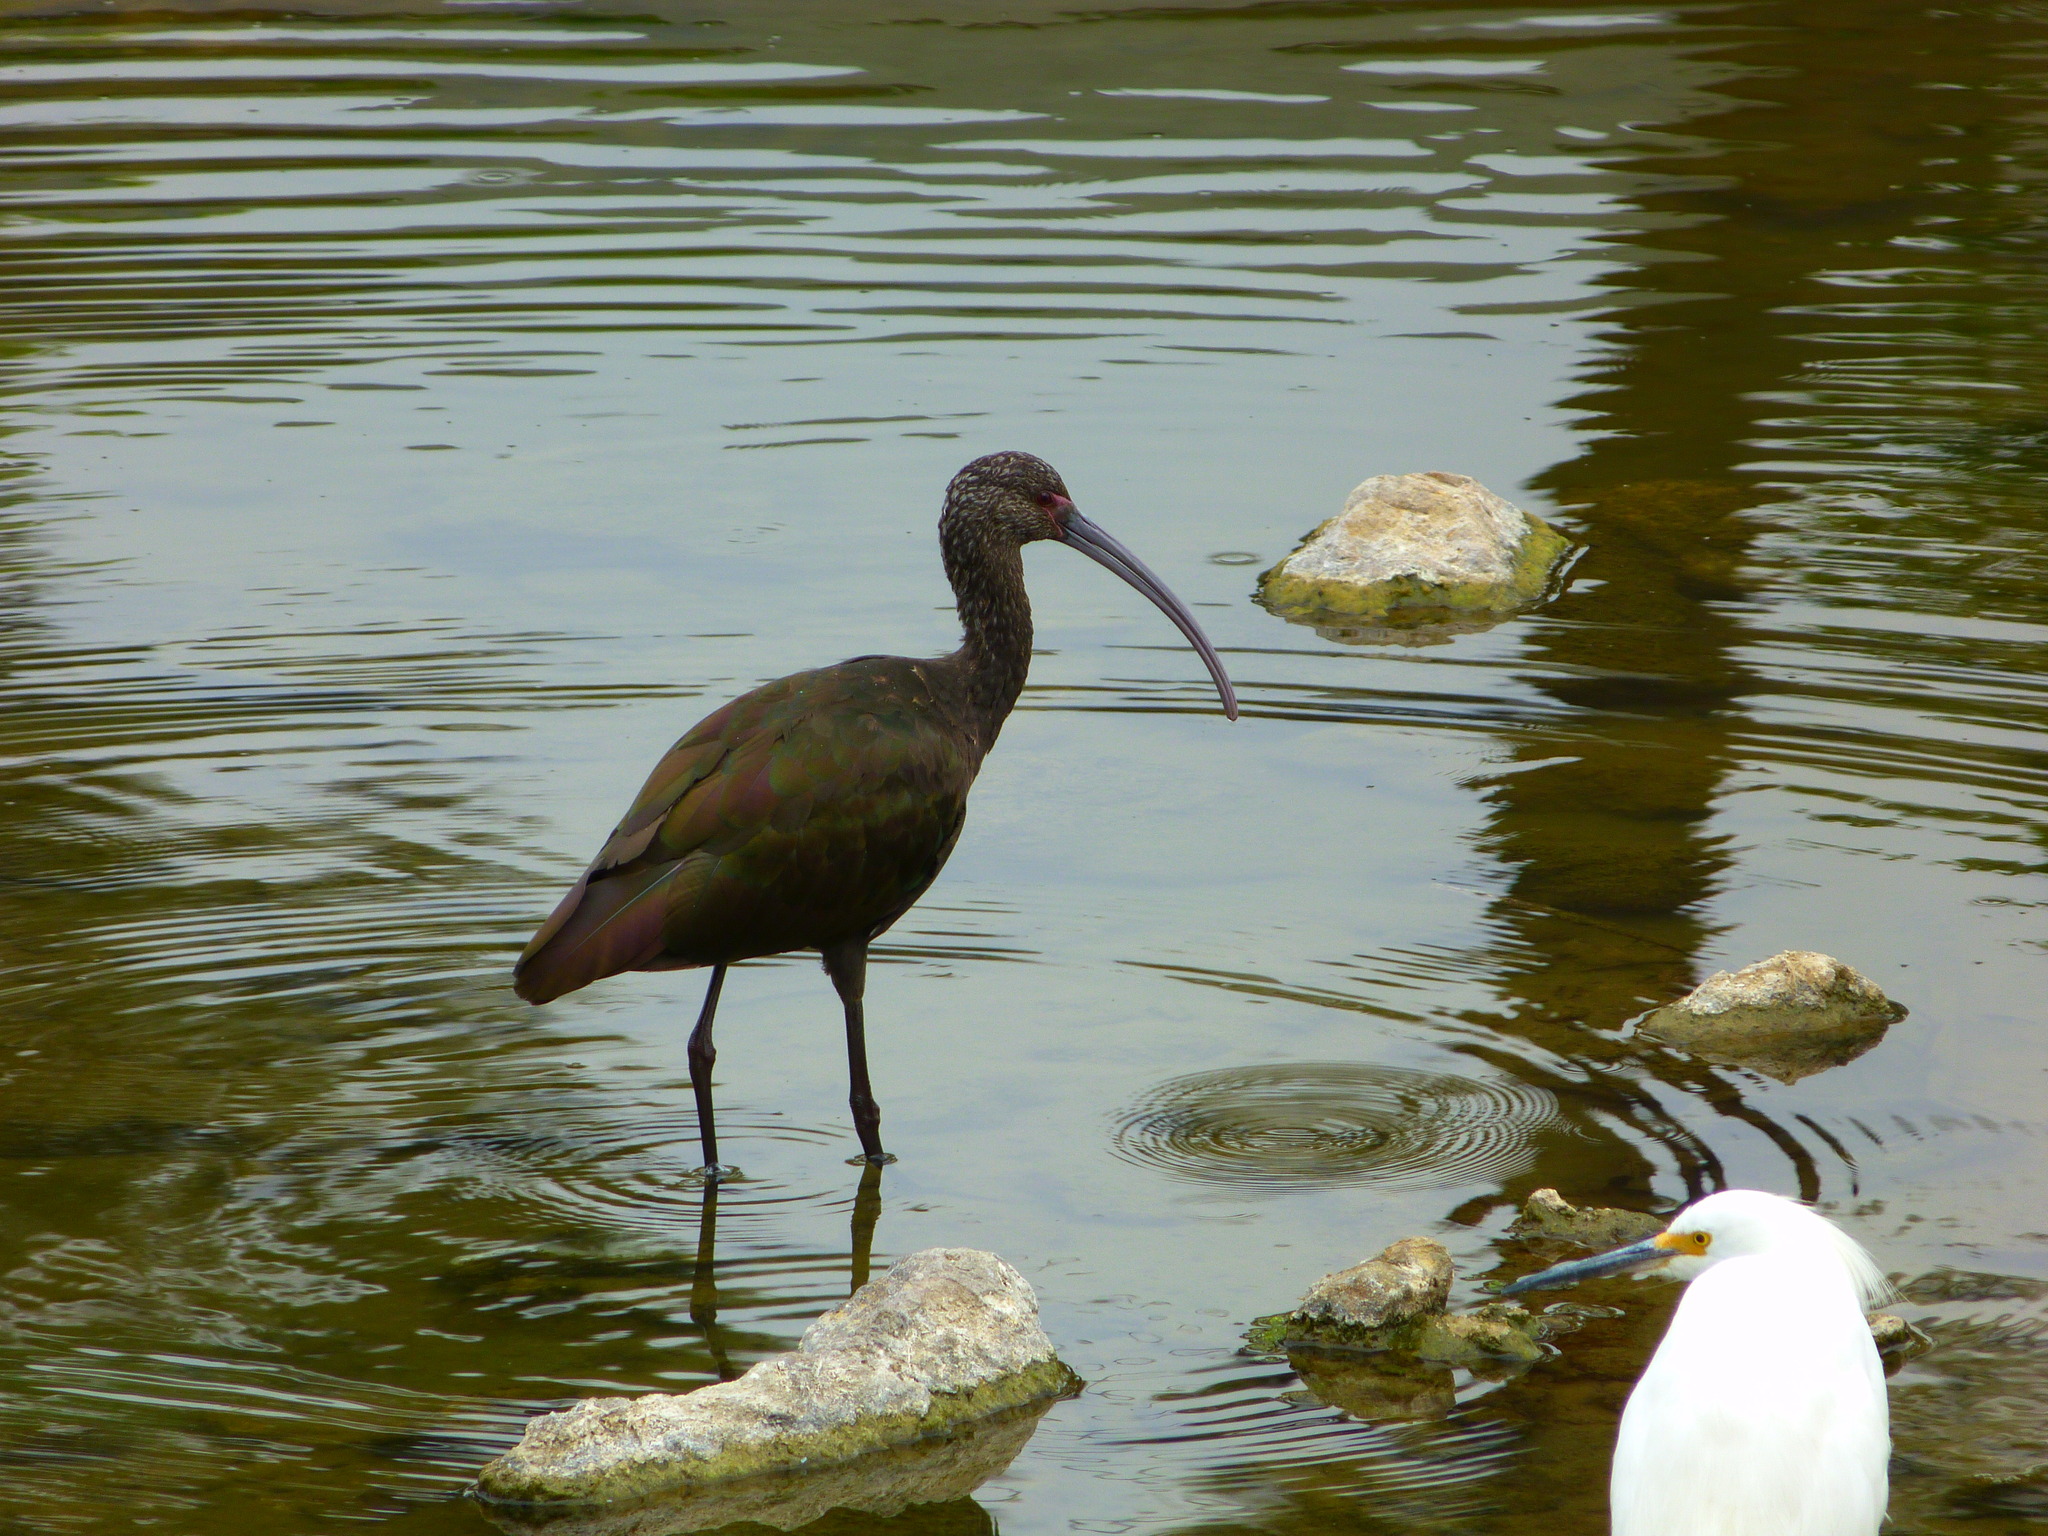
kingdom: Animalia
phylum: Chordata
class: Aves
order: Pelecaniformes
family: Threskiornithidae
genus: Plegadis
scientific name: Plegadis chihi
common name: White-faced ibis
